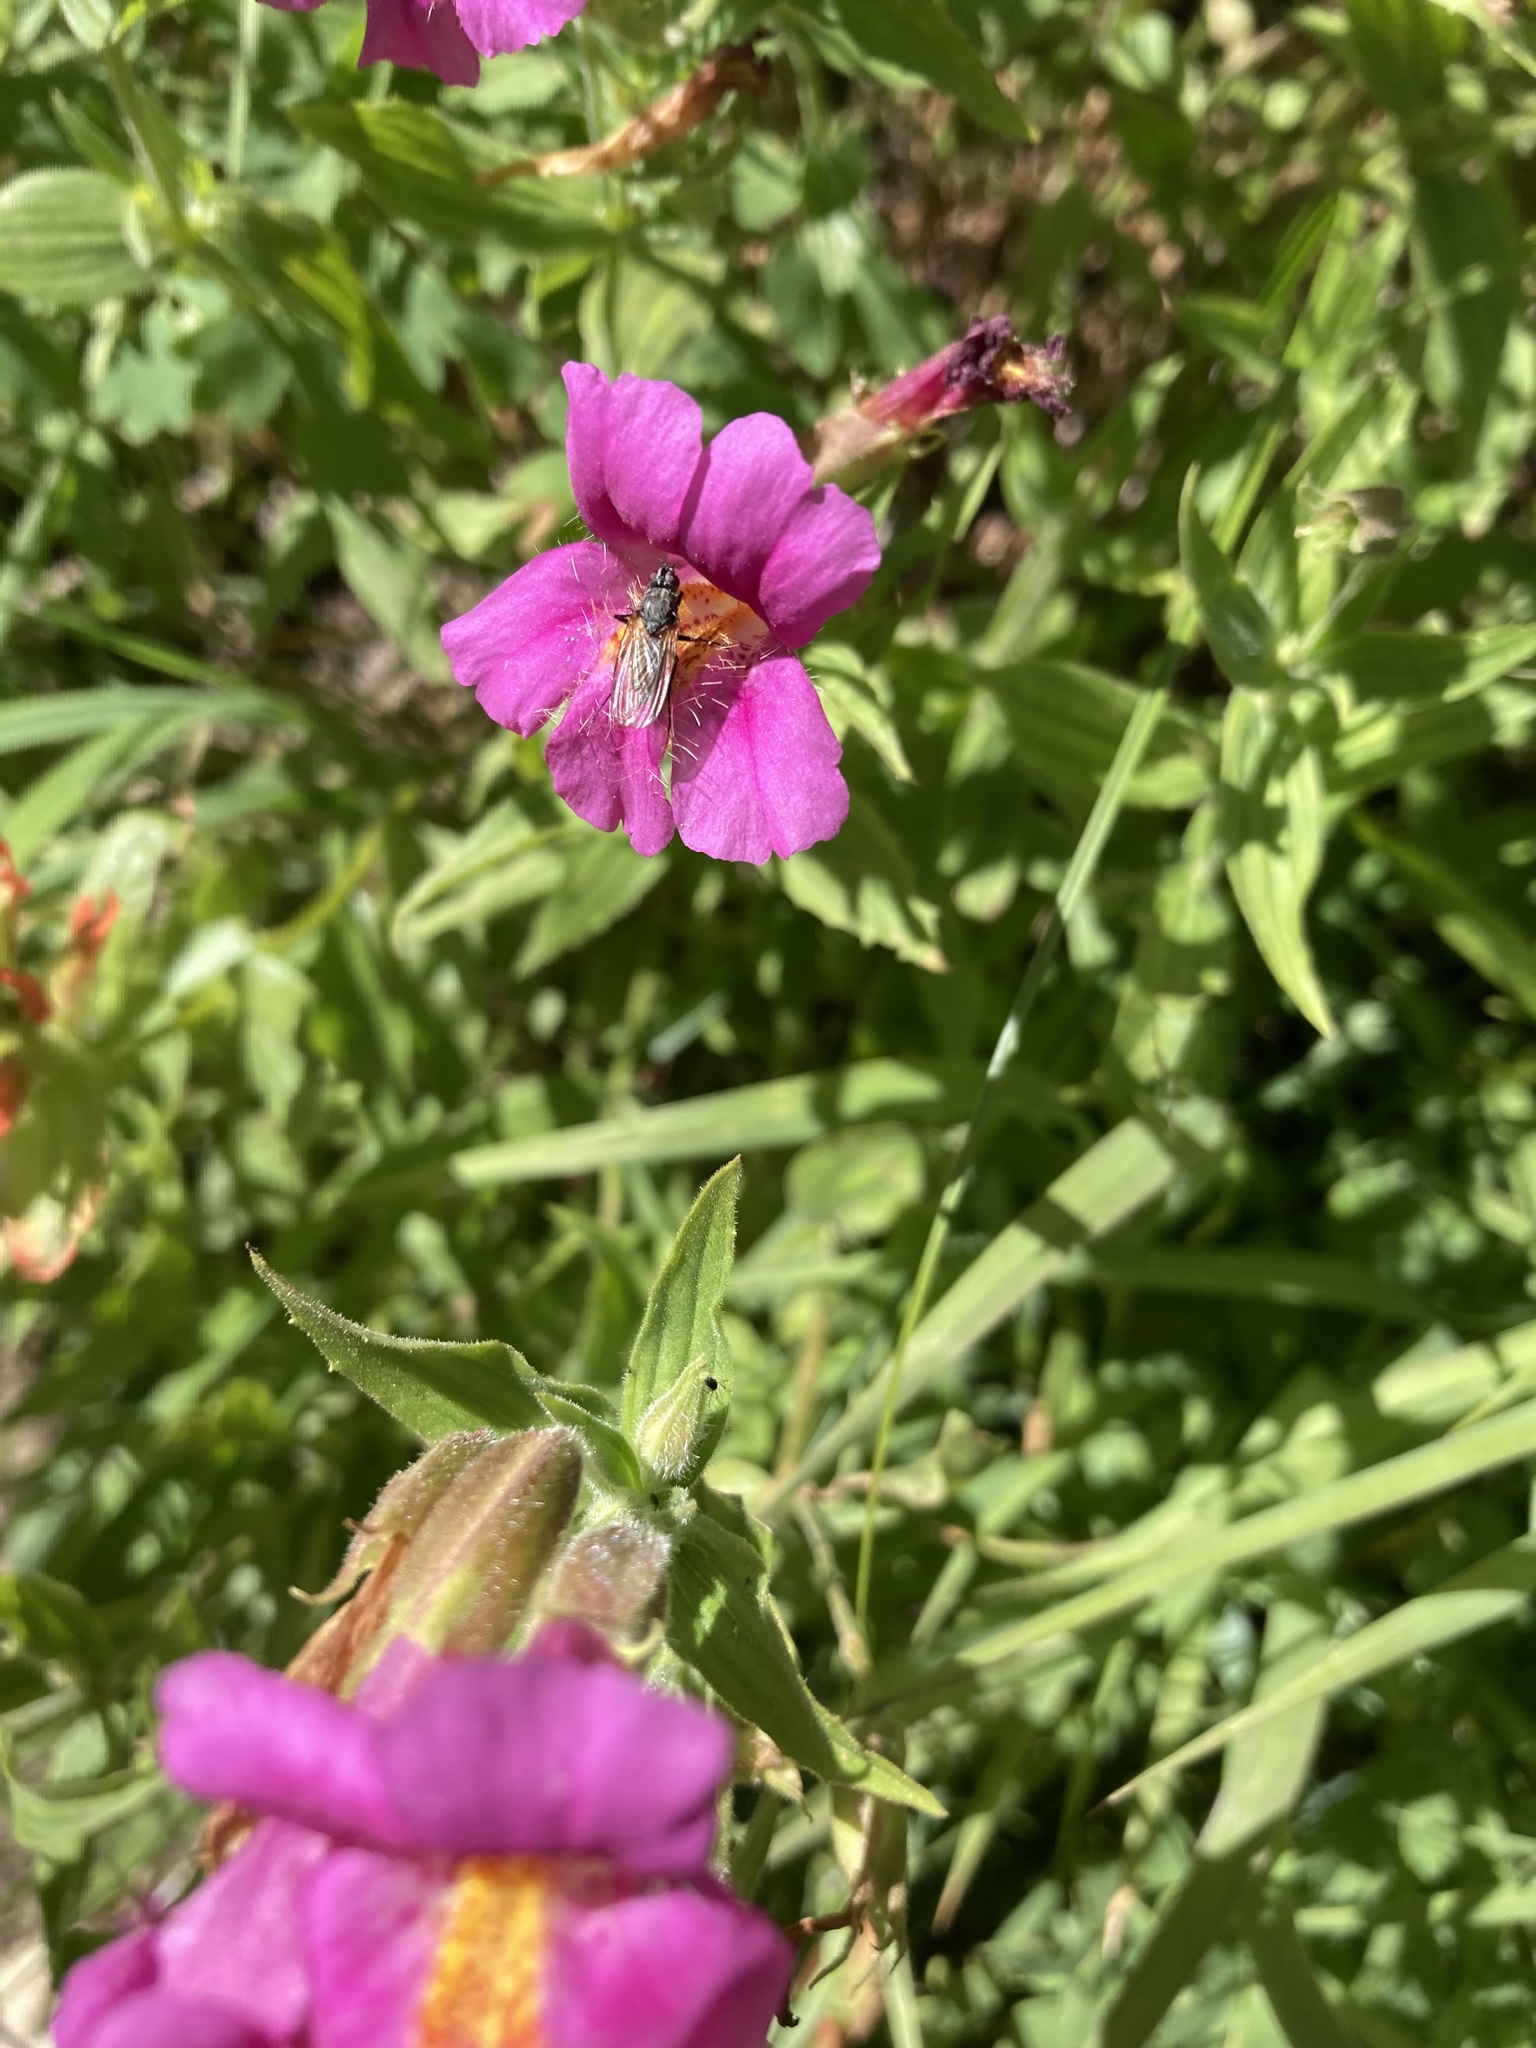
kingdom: Plantae
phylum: Tracheophyta
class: Magnoliopsida
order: Lamiales
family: Phrymaceae
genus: Erythranthe
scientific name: Erythranthe lewisii
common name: Lewis's monkey-flower
